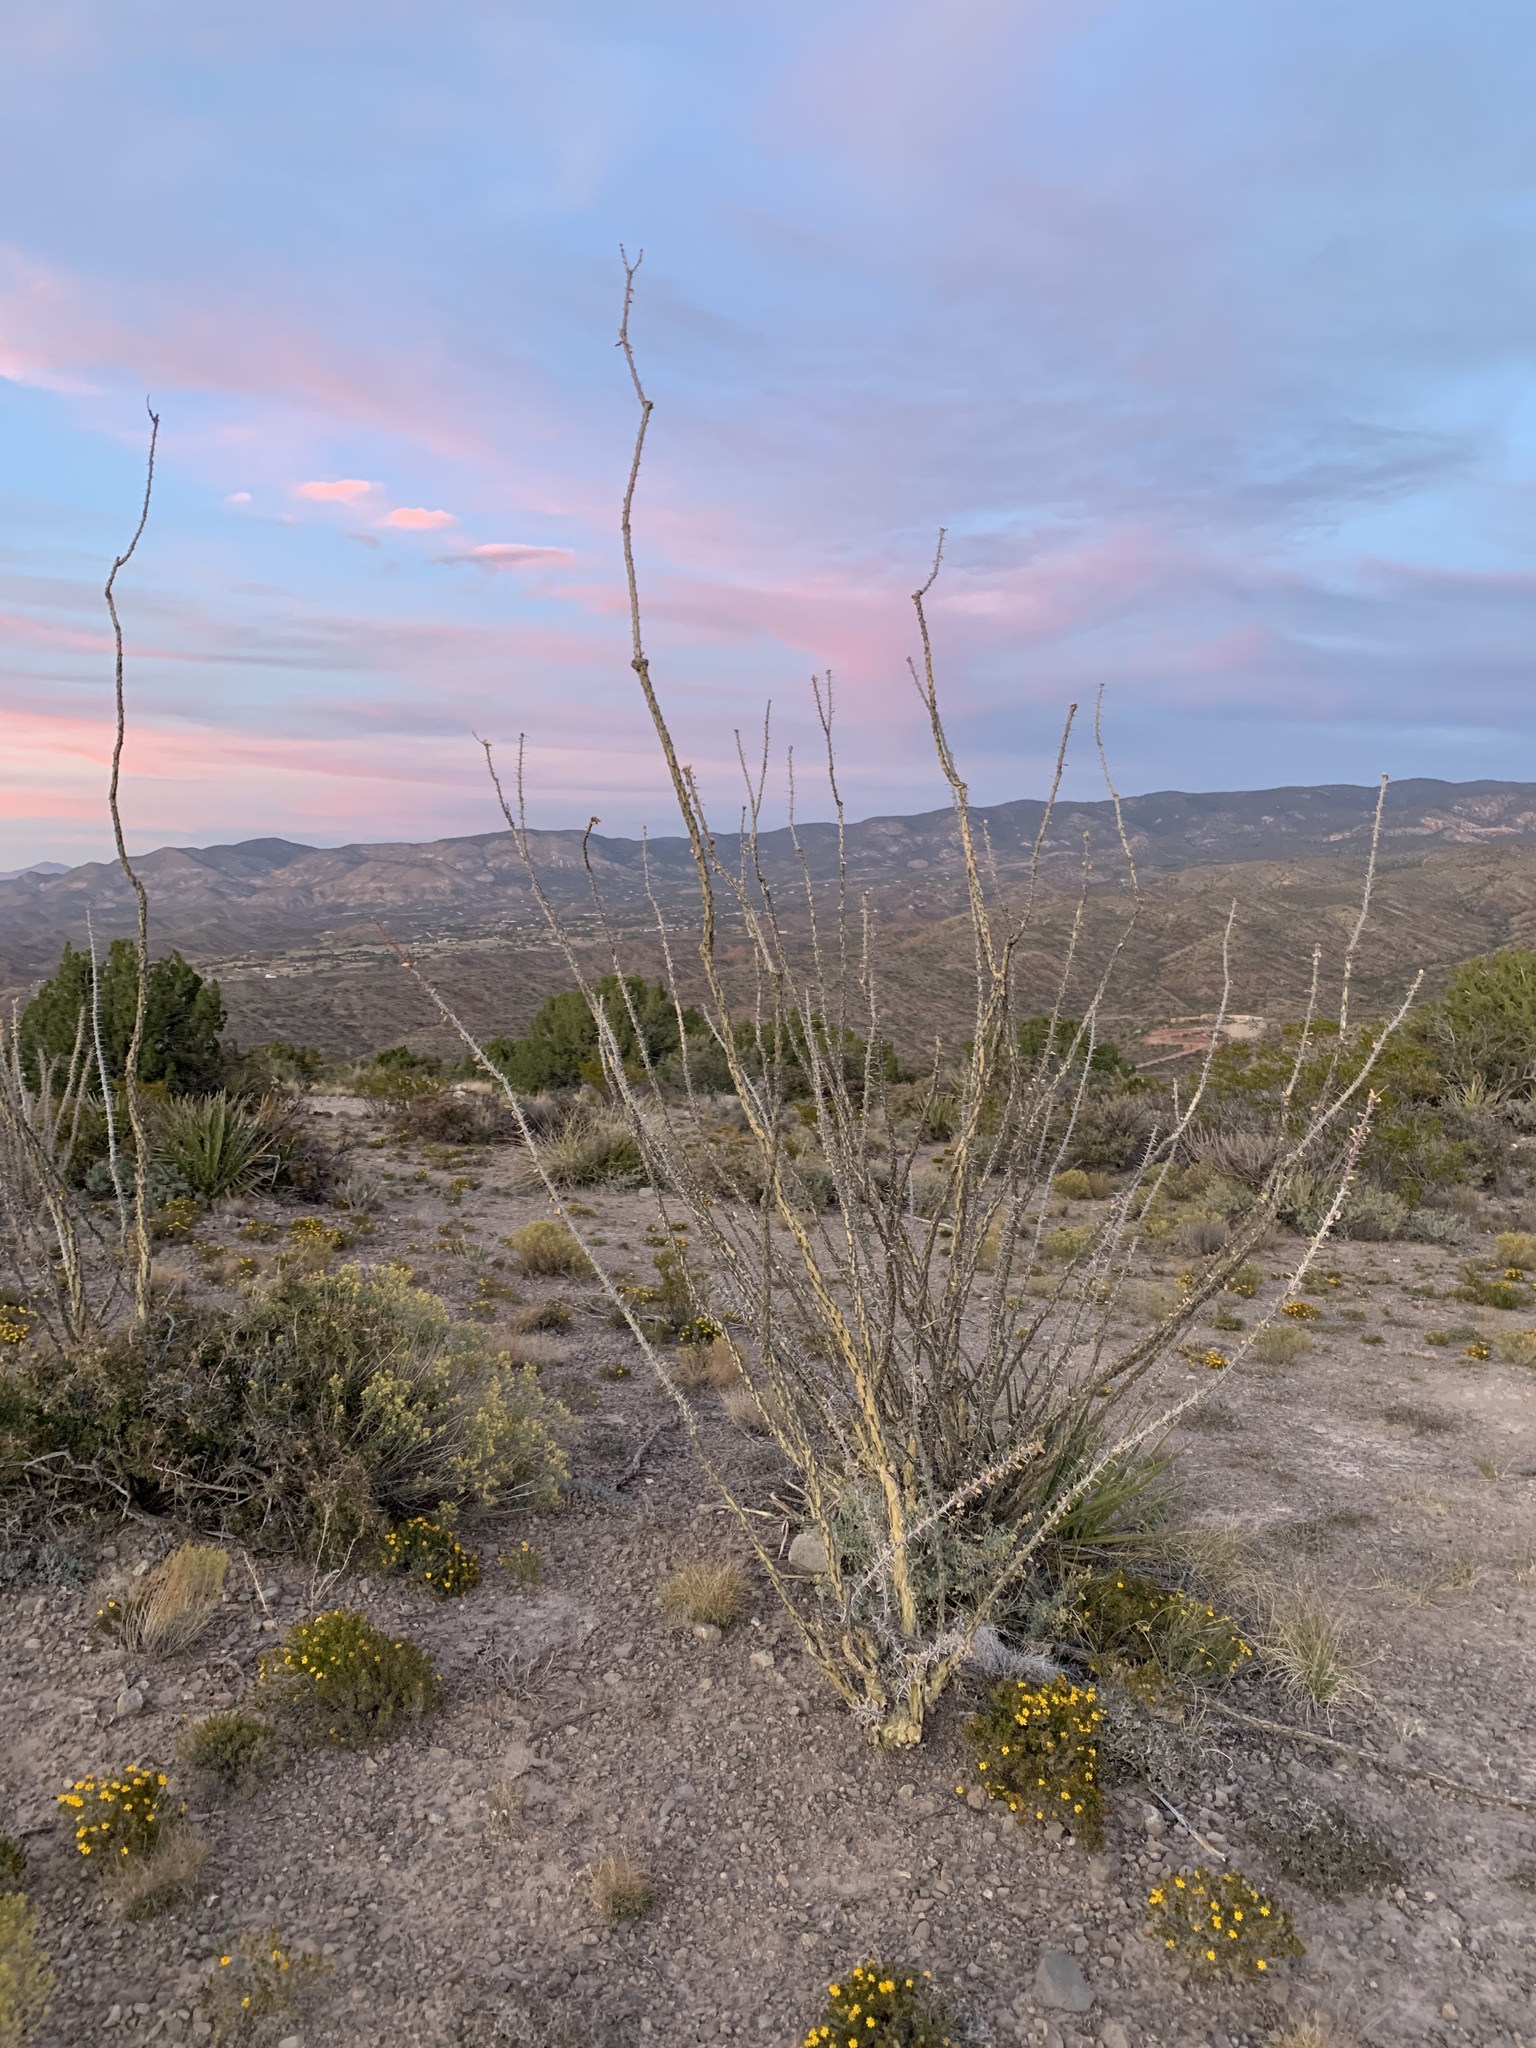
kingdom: Plantae
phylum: Tracheophyta
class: Magnoliopsida
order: Ericales
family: Fouquieriaceae
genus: Fouquieria
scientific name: Fouquieria splendens
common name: Vine-cactus
